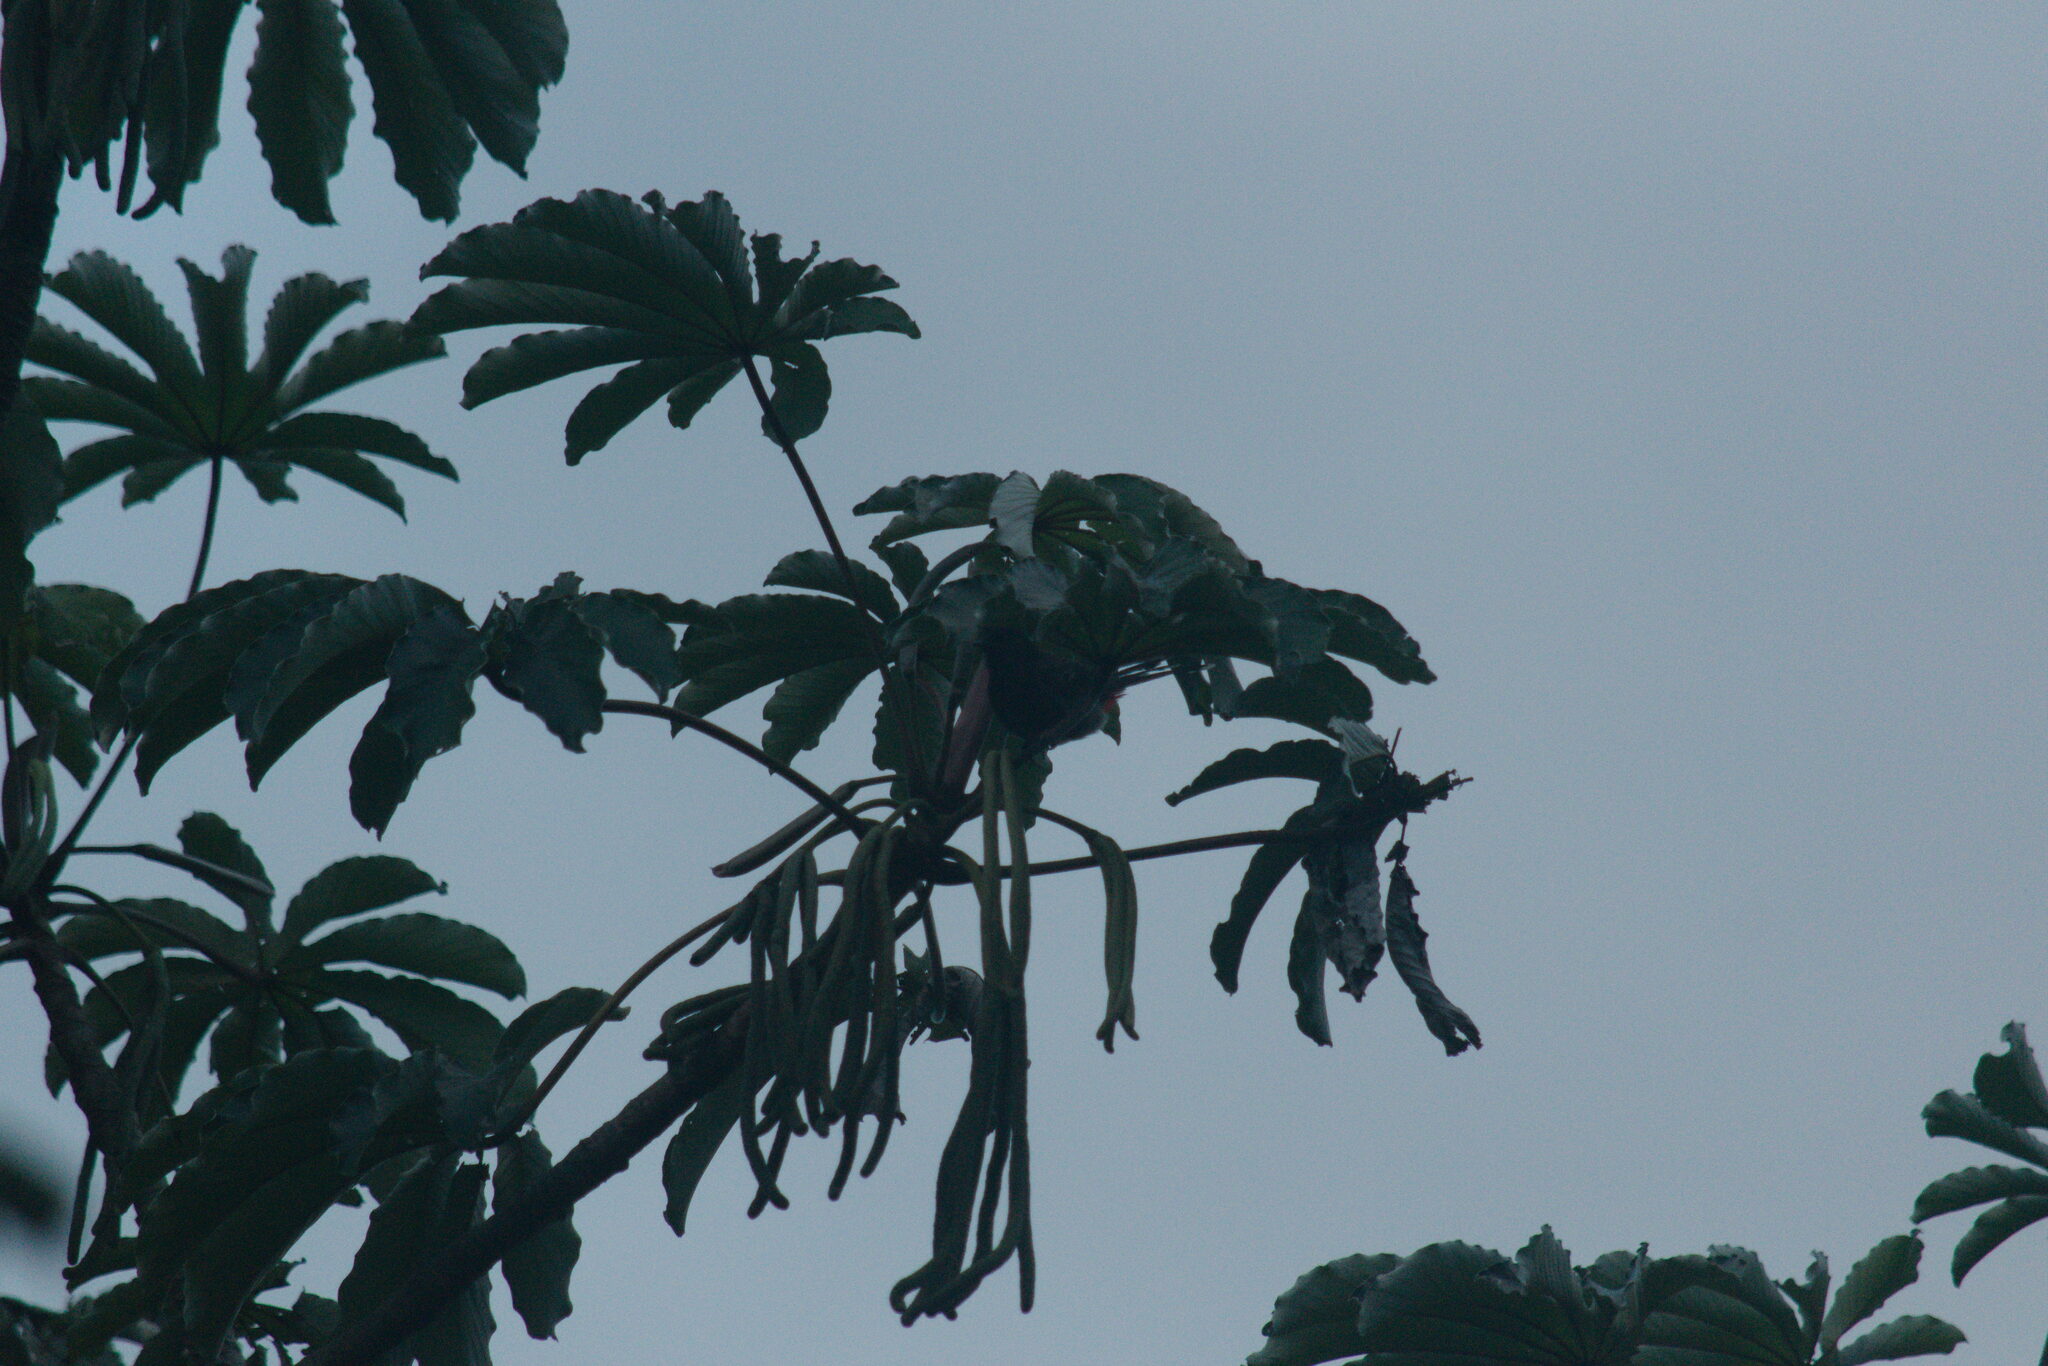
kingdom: Plantae
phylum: Tracheophyta
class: Magnoliopsida
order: Rosales
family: Urticaceae
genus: Cecropia
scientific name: Cecropia obtusifolia
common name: Trumpet tree
